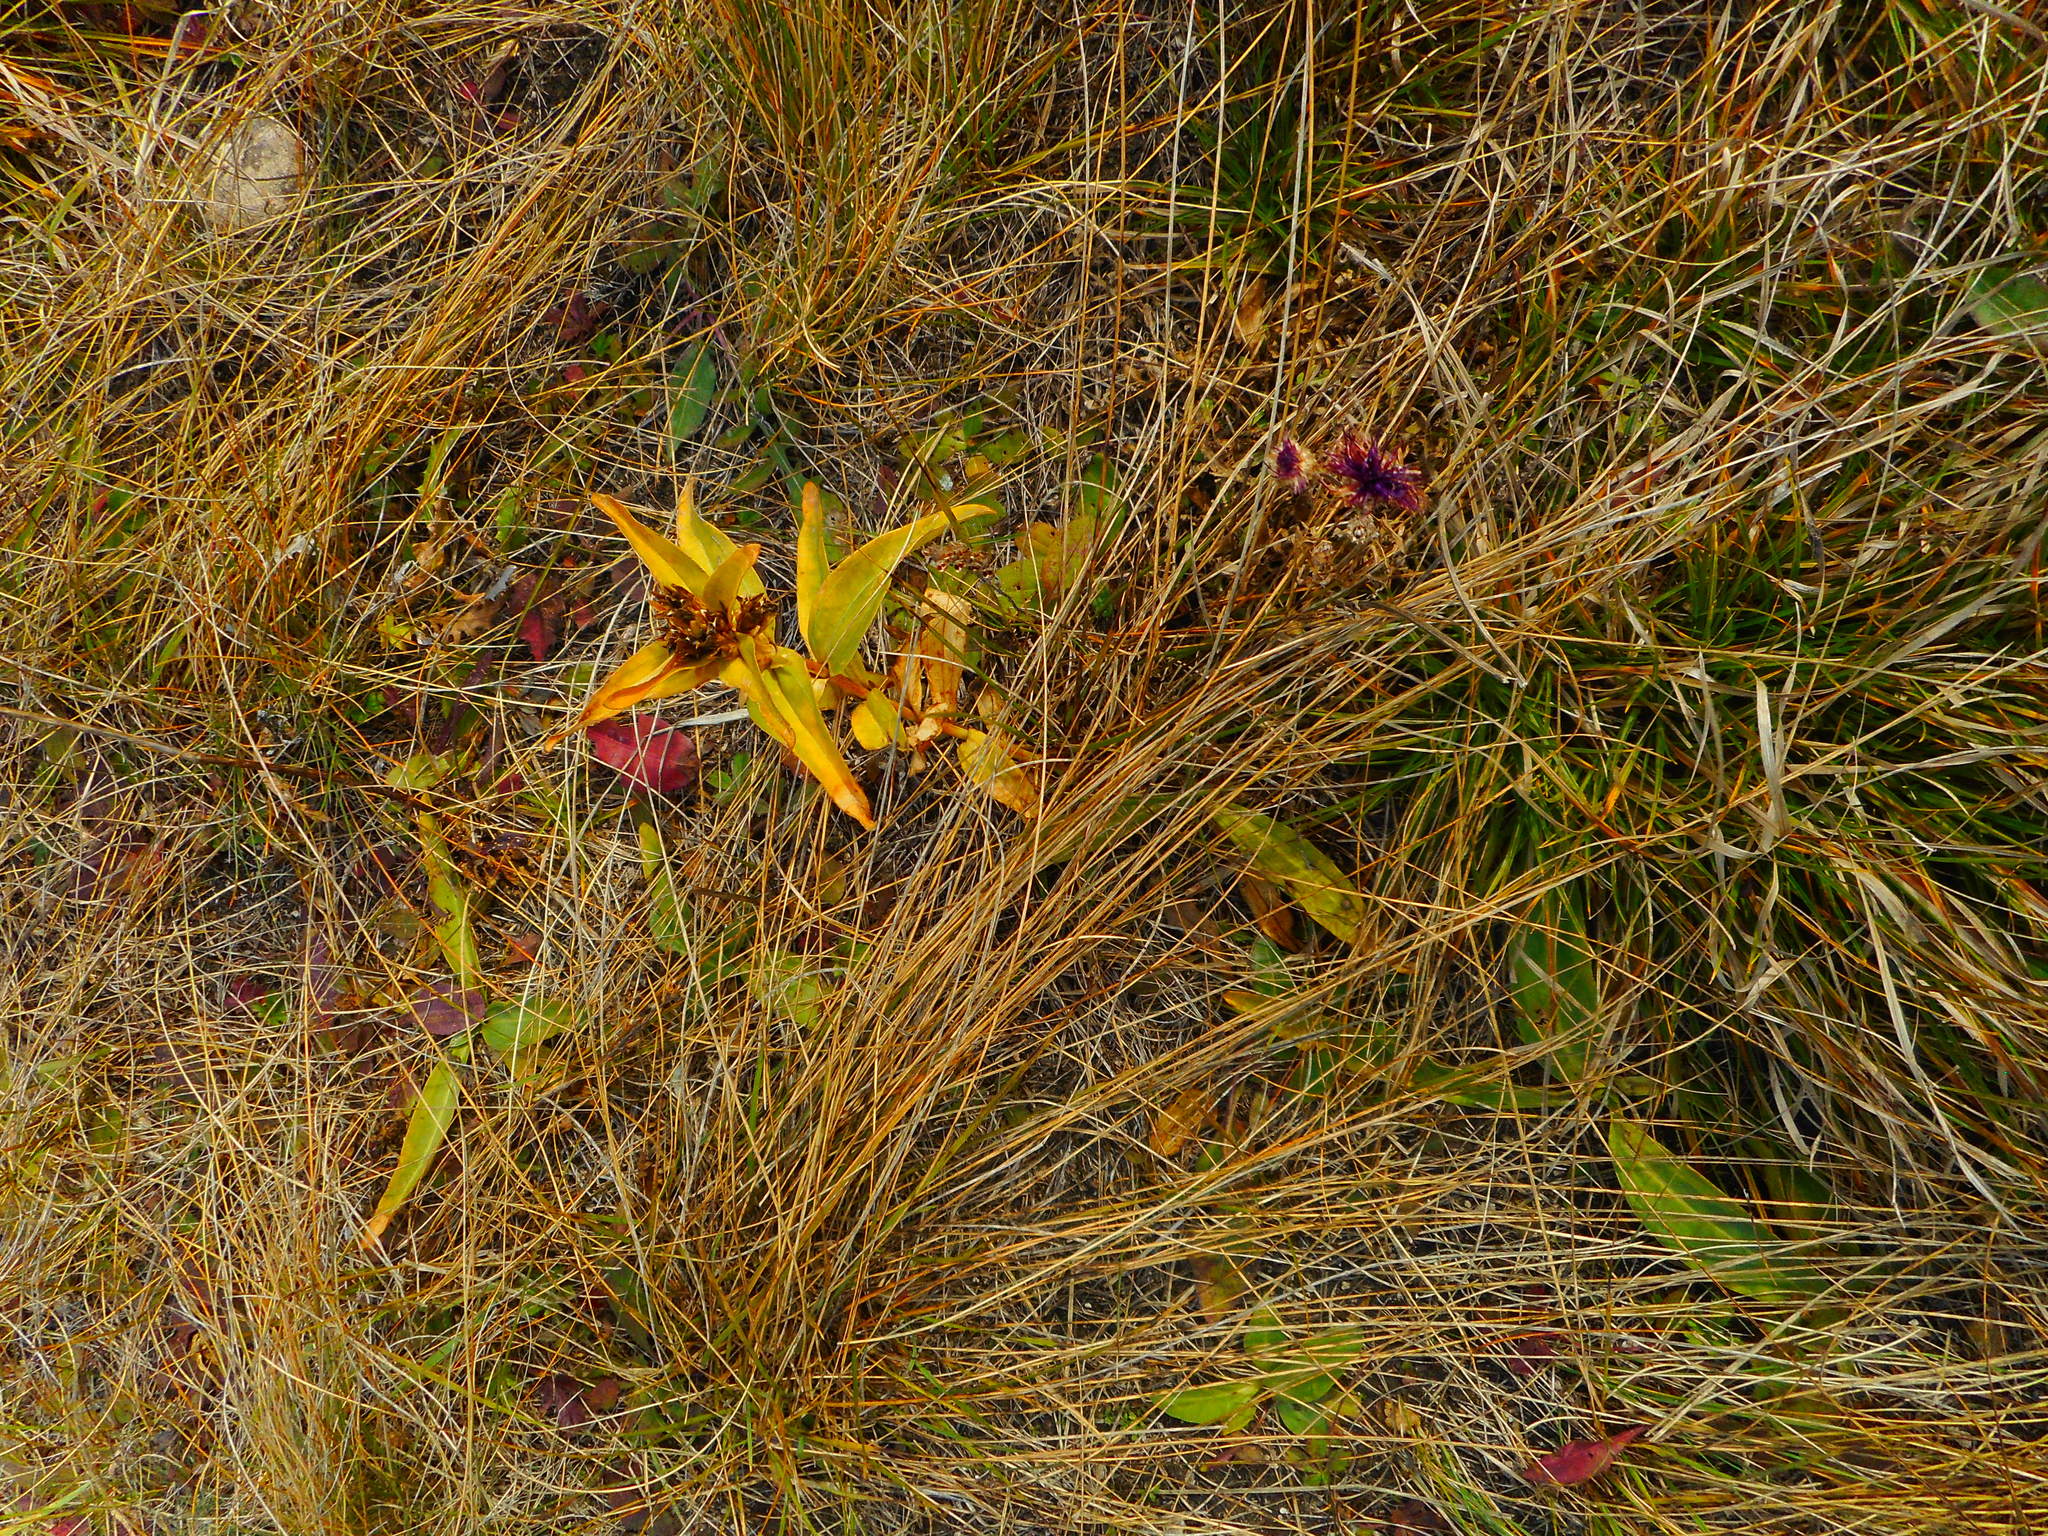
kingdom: Plantae
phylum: Tracheophyta
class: Magnoliopsida
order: Gentianales
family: Gentianaceae
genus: Gentiana
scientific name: Gentiana cruciata
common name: Cross gentian
